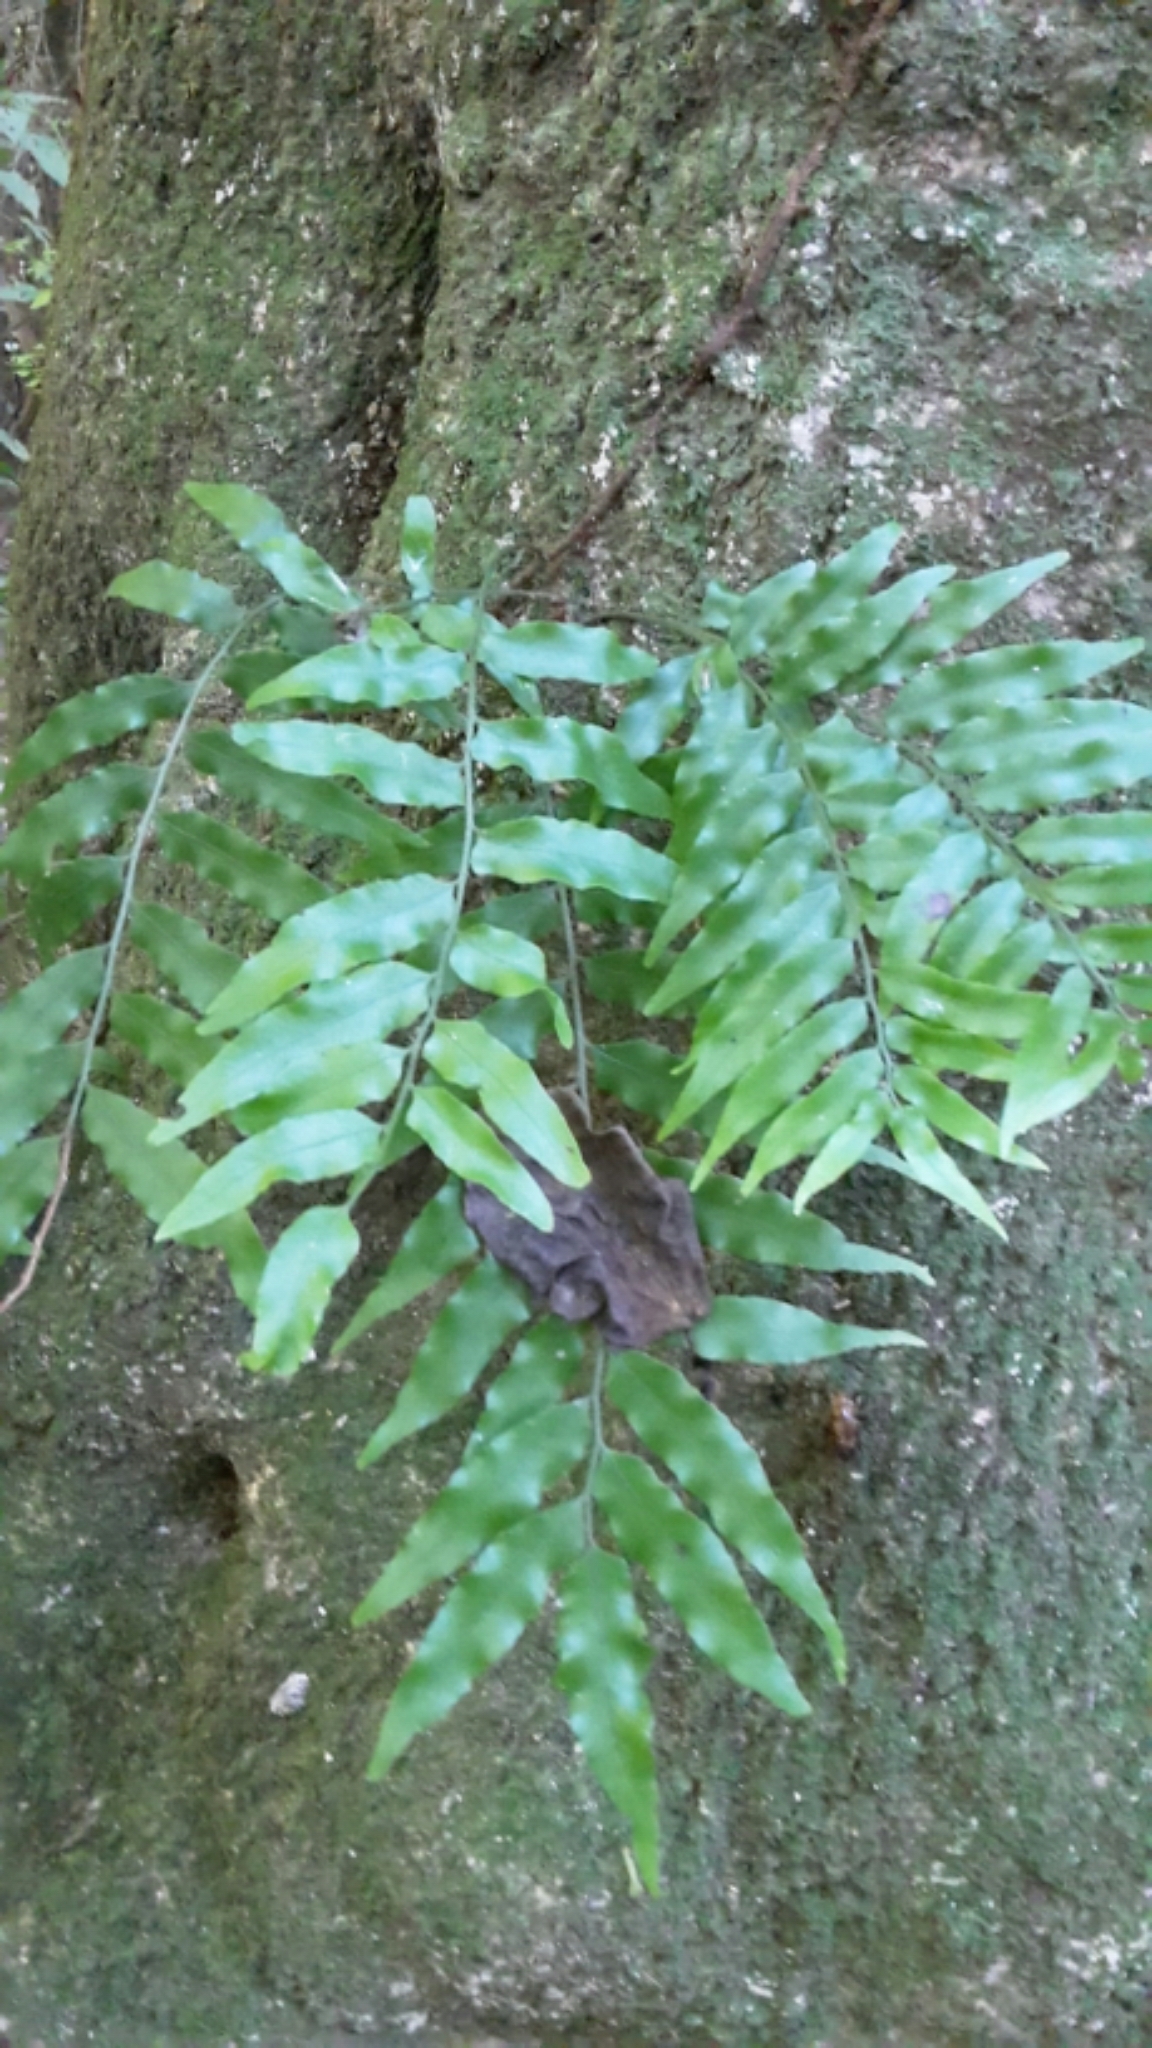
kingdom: Plantae
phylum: Tracheophyta
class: Polypodiopsida
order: Polypodiales
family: Tectariaceae
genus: Arthropteris
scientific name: Arthropteris tenella
